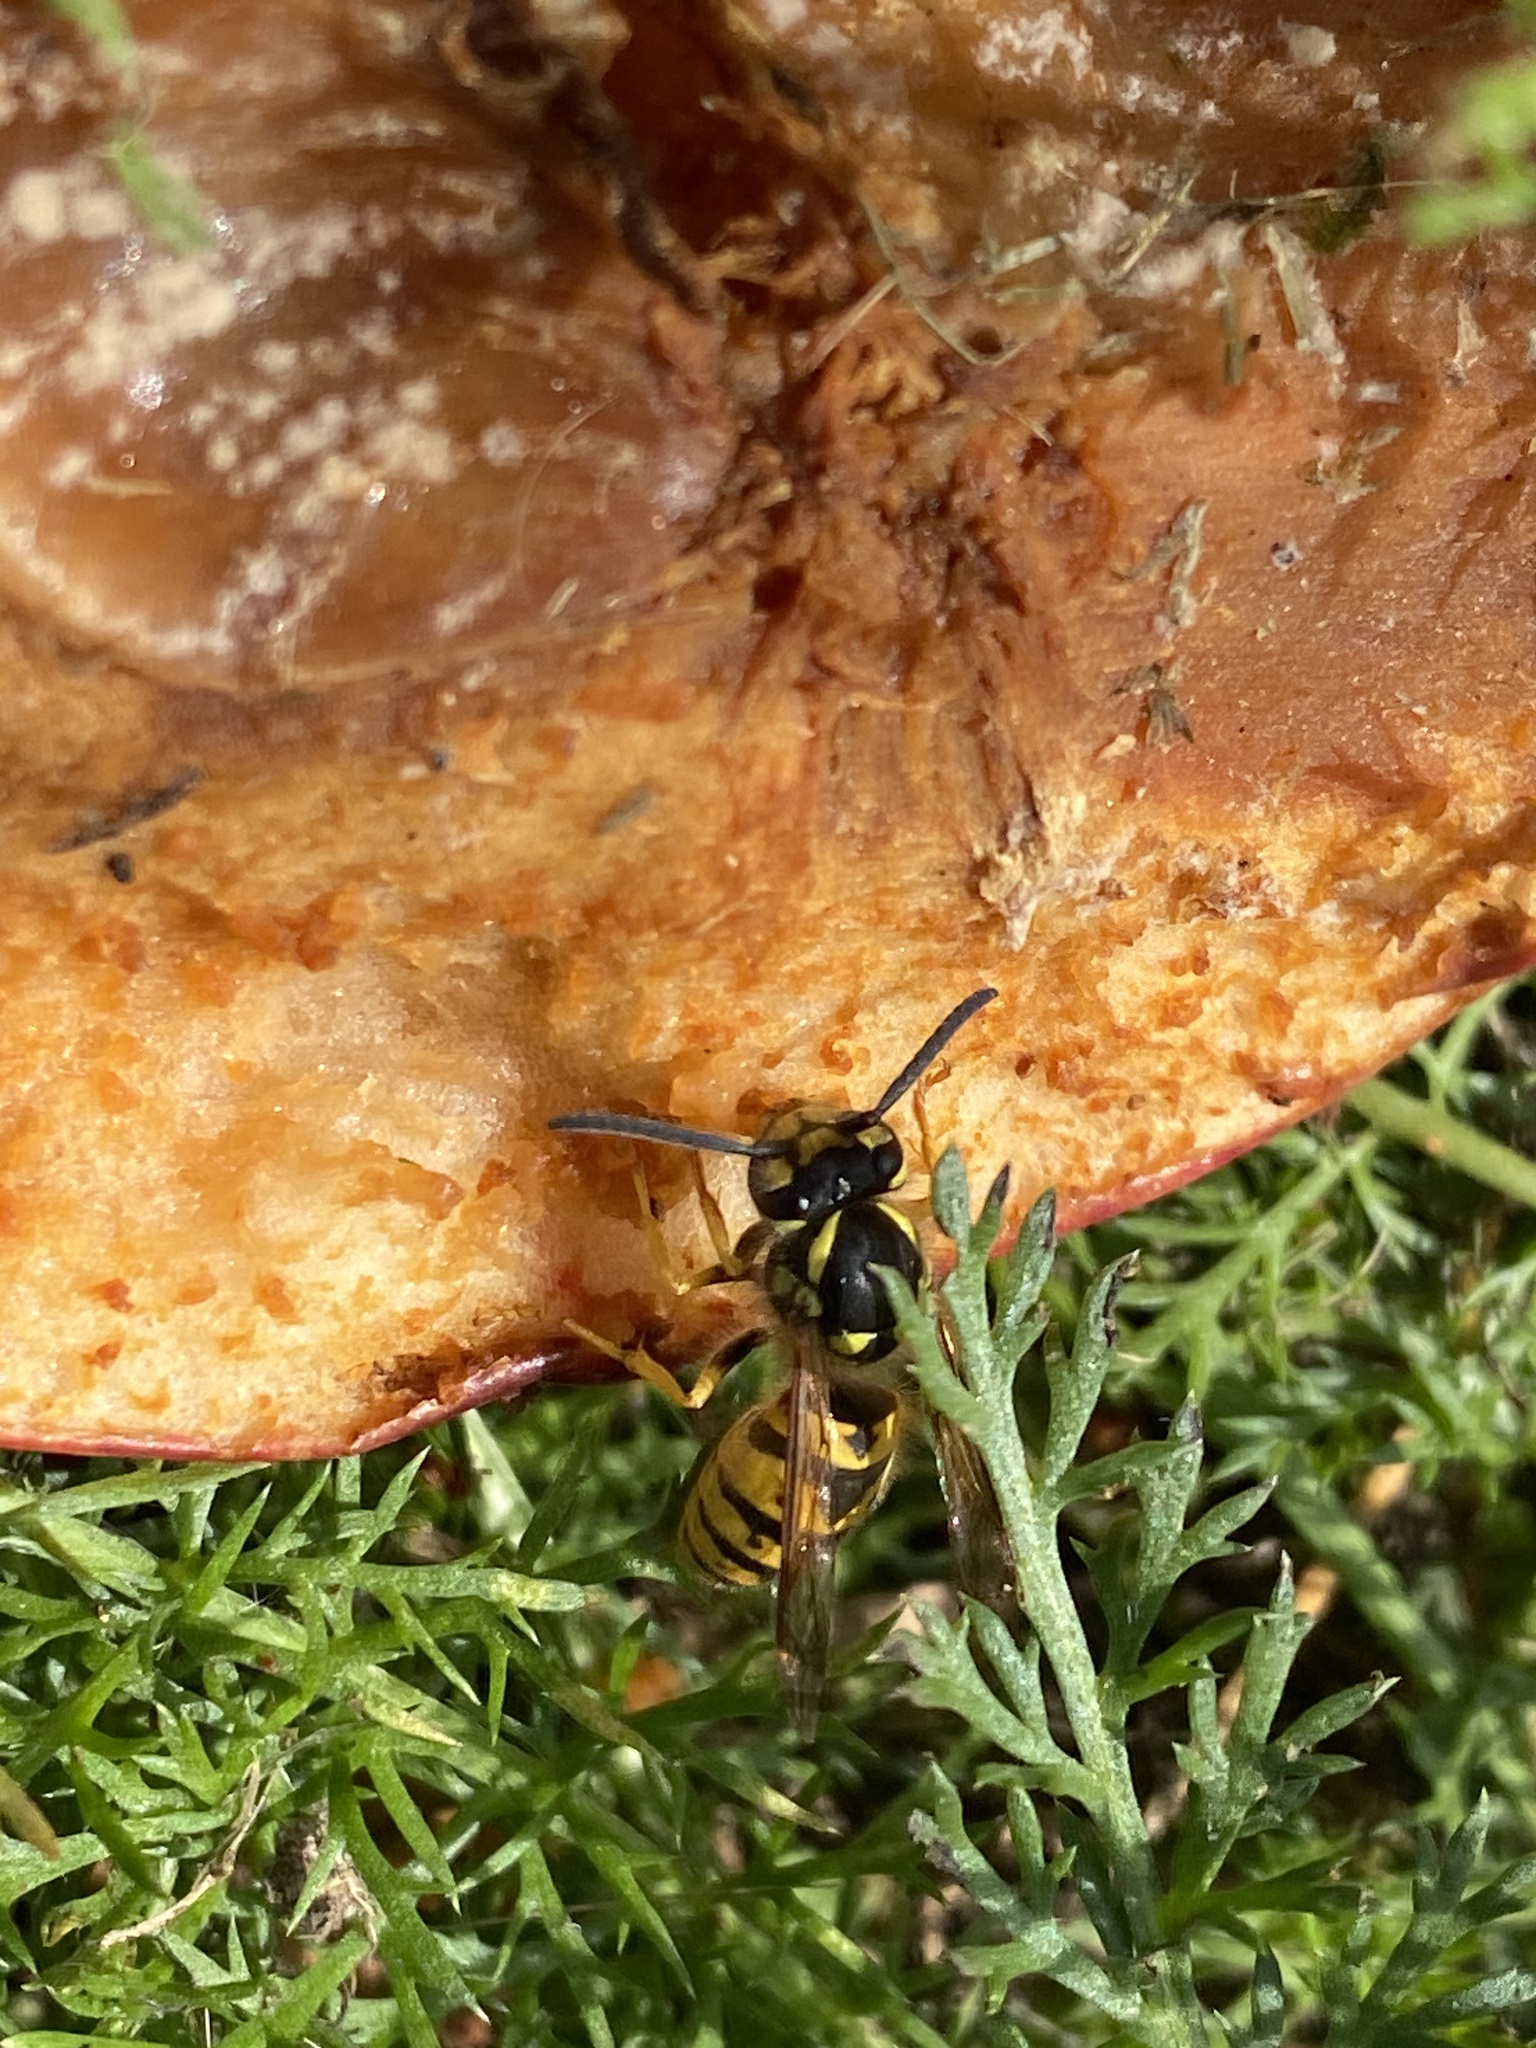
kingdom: Animalia
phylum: Arthropoda
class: Insecta
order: Hymenoptera
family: Vespidae
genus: Vespula
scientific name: Vespula germanica
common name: German wasp
